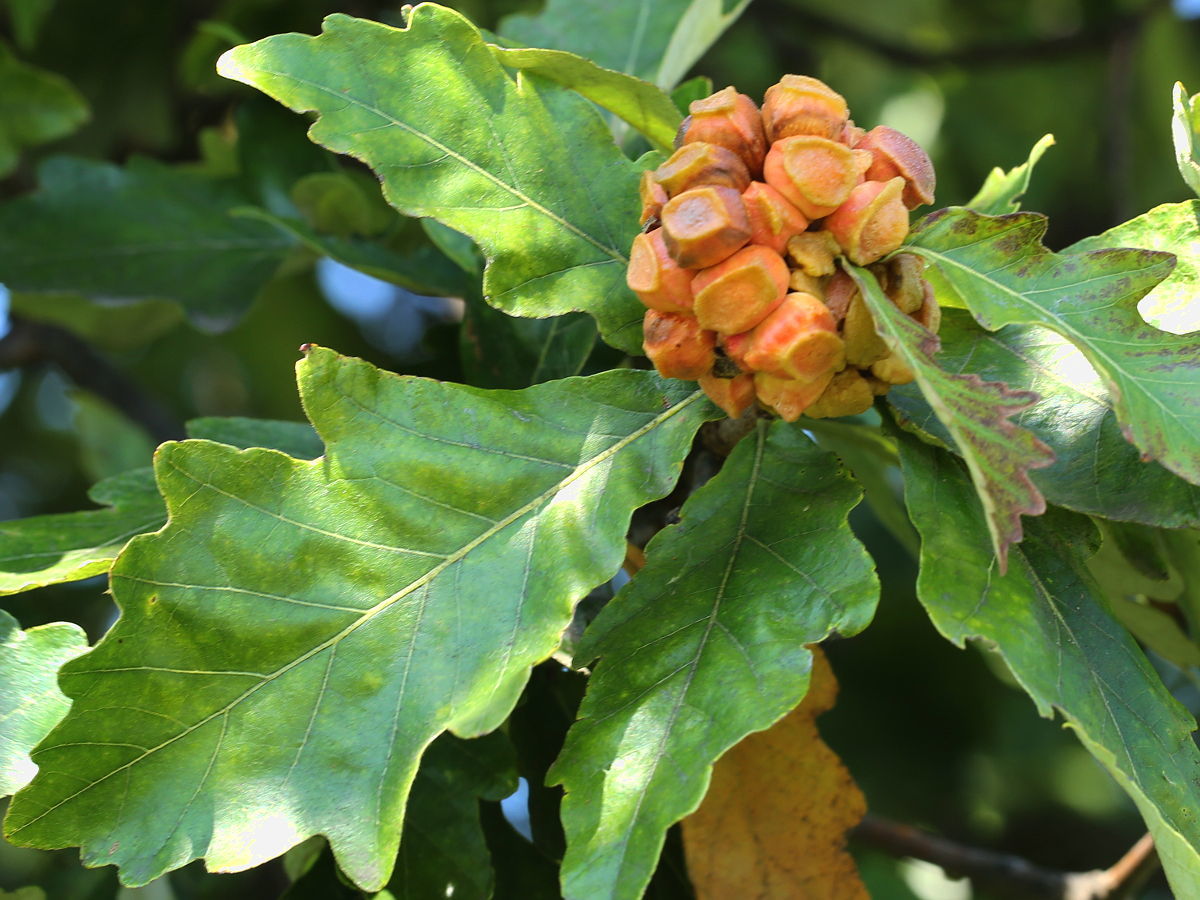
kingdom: Animalia
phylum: Arthropoda
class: Insecta
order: Hymenoptera
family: Cynipidae
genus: Andricus
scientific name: Andricus
